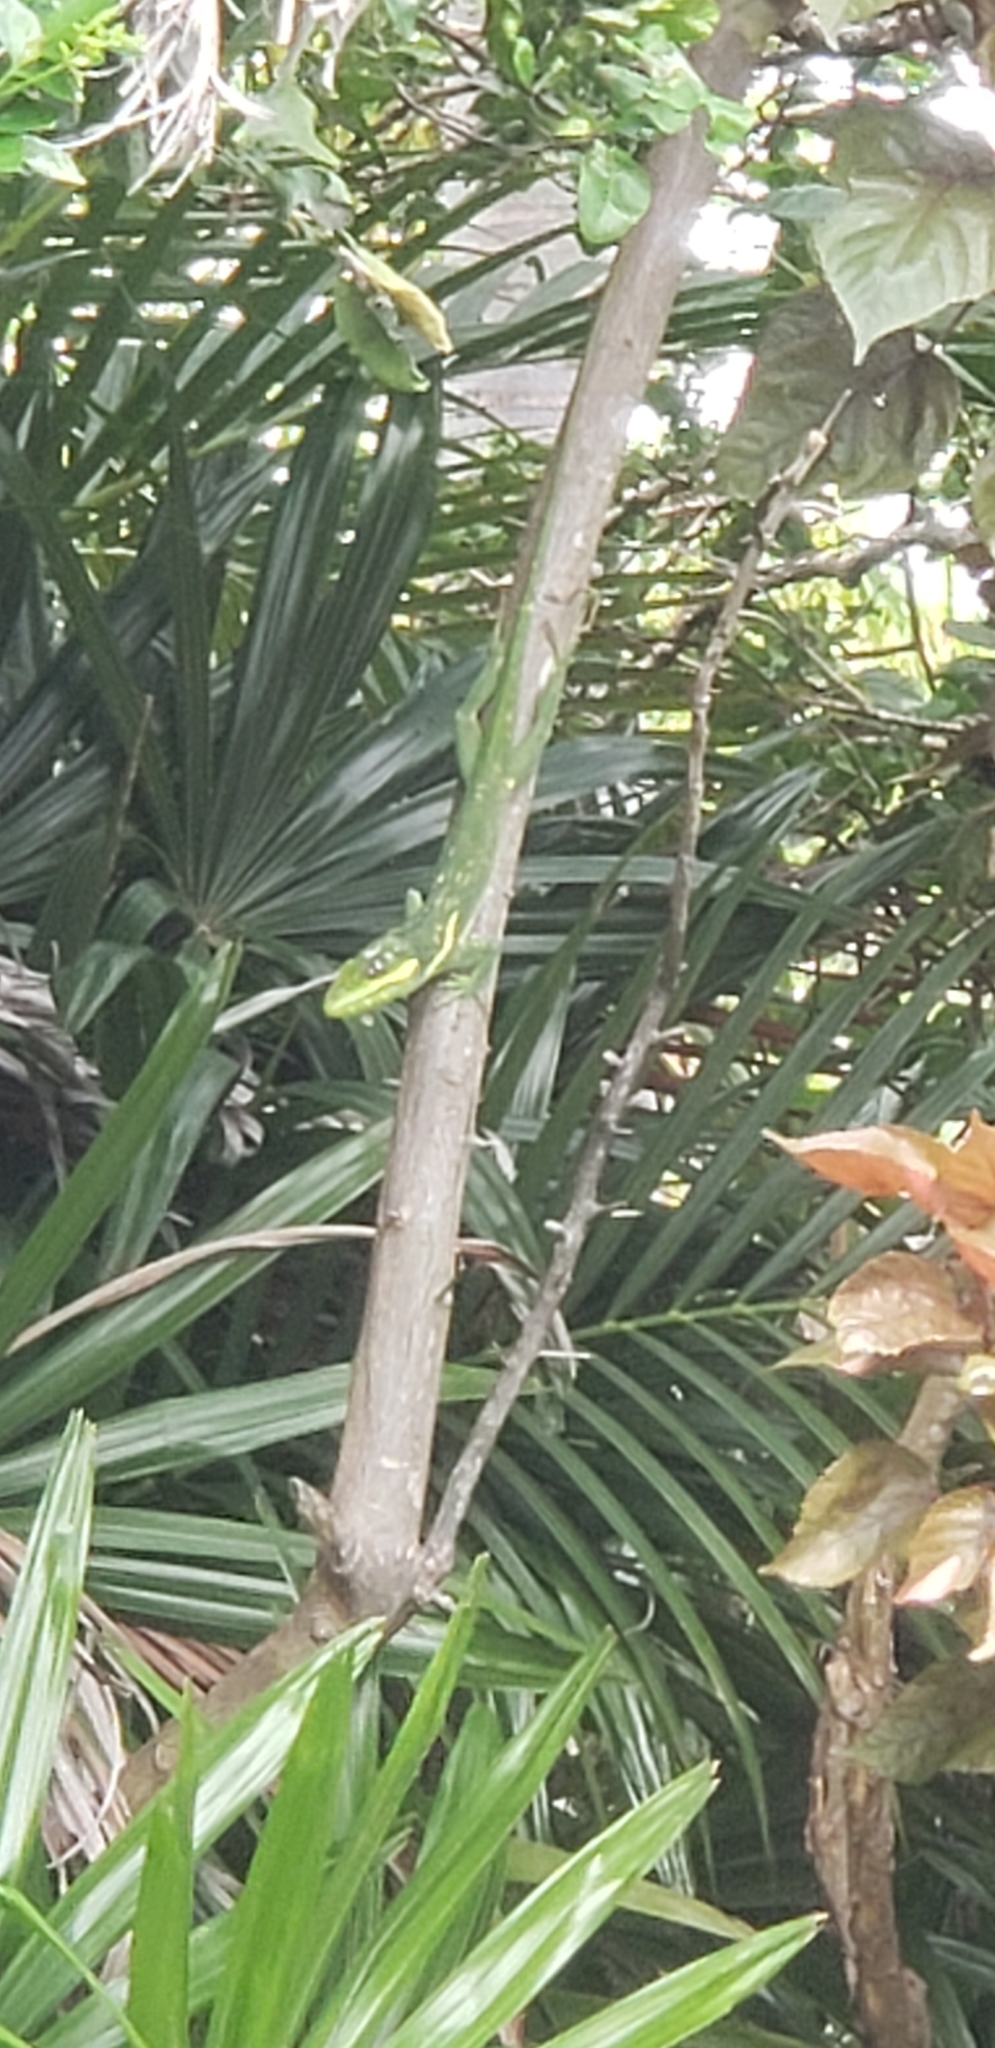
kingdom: Animalia
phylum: Chordata
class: Squamata
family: Dactyloidae
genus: Anolis
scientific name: Anolis equestris
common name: Knight anole
